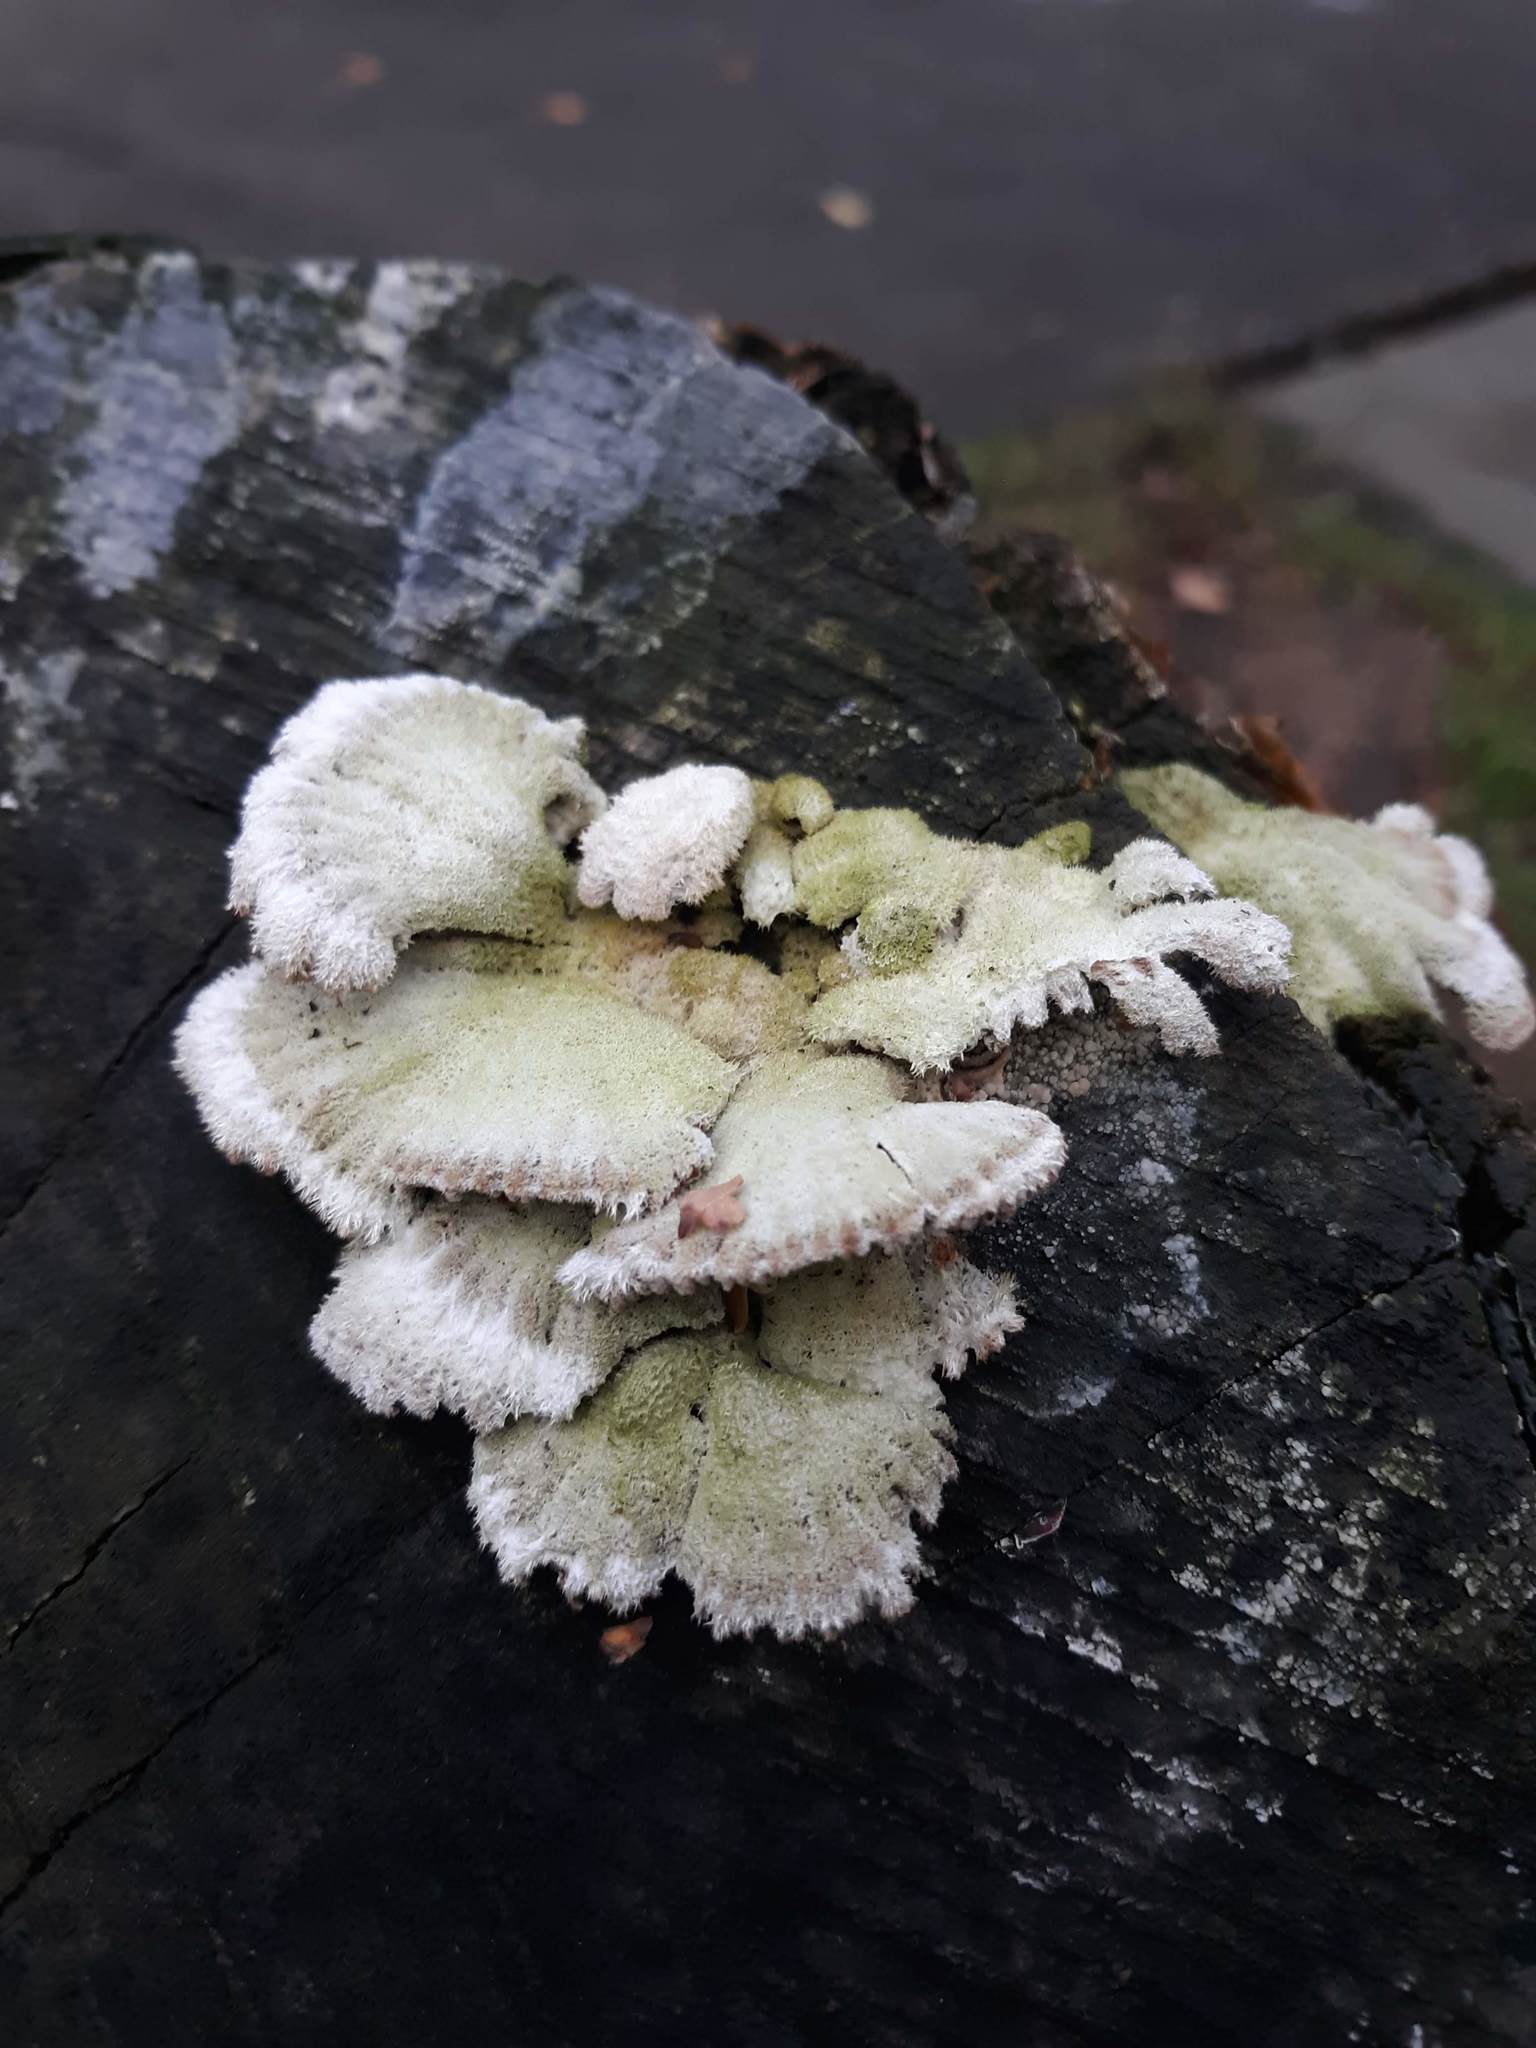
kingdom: Fungi
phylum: Basidiomycota
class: Agaricomycetes
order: Agaricales
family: Schizophyllaceae
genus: Schizophyllum
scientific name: Schizophyllum commune
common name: Common porecrust
